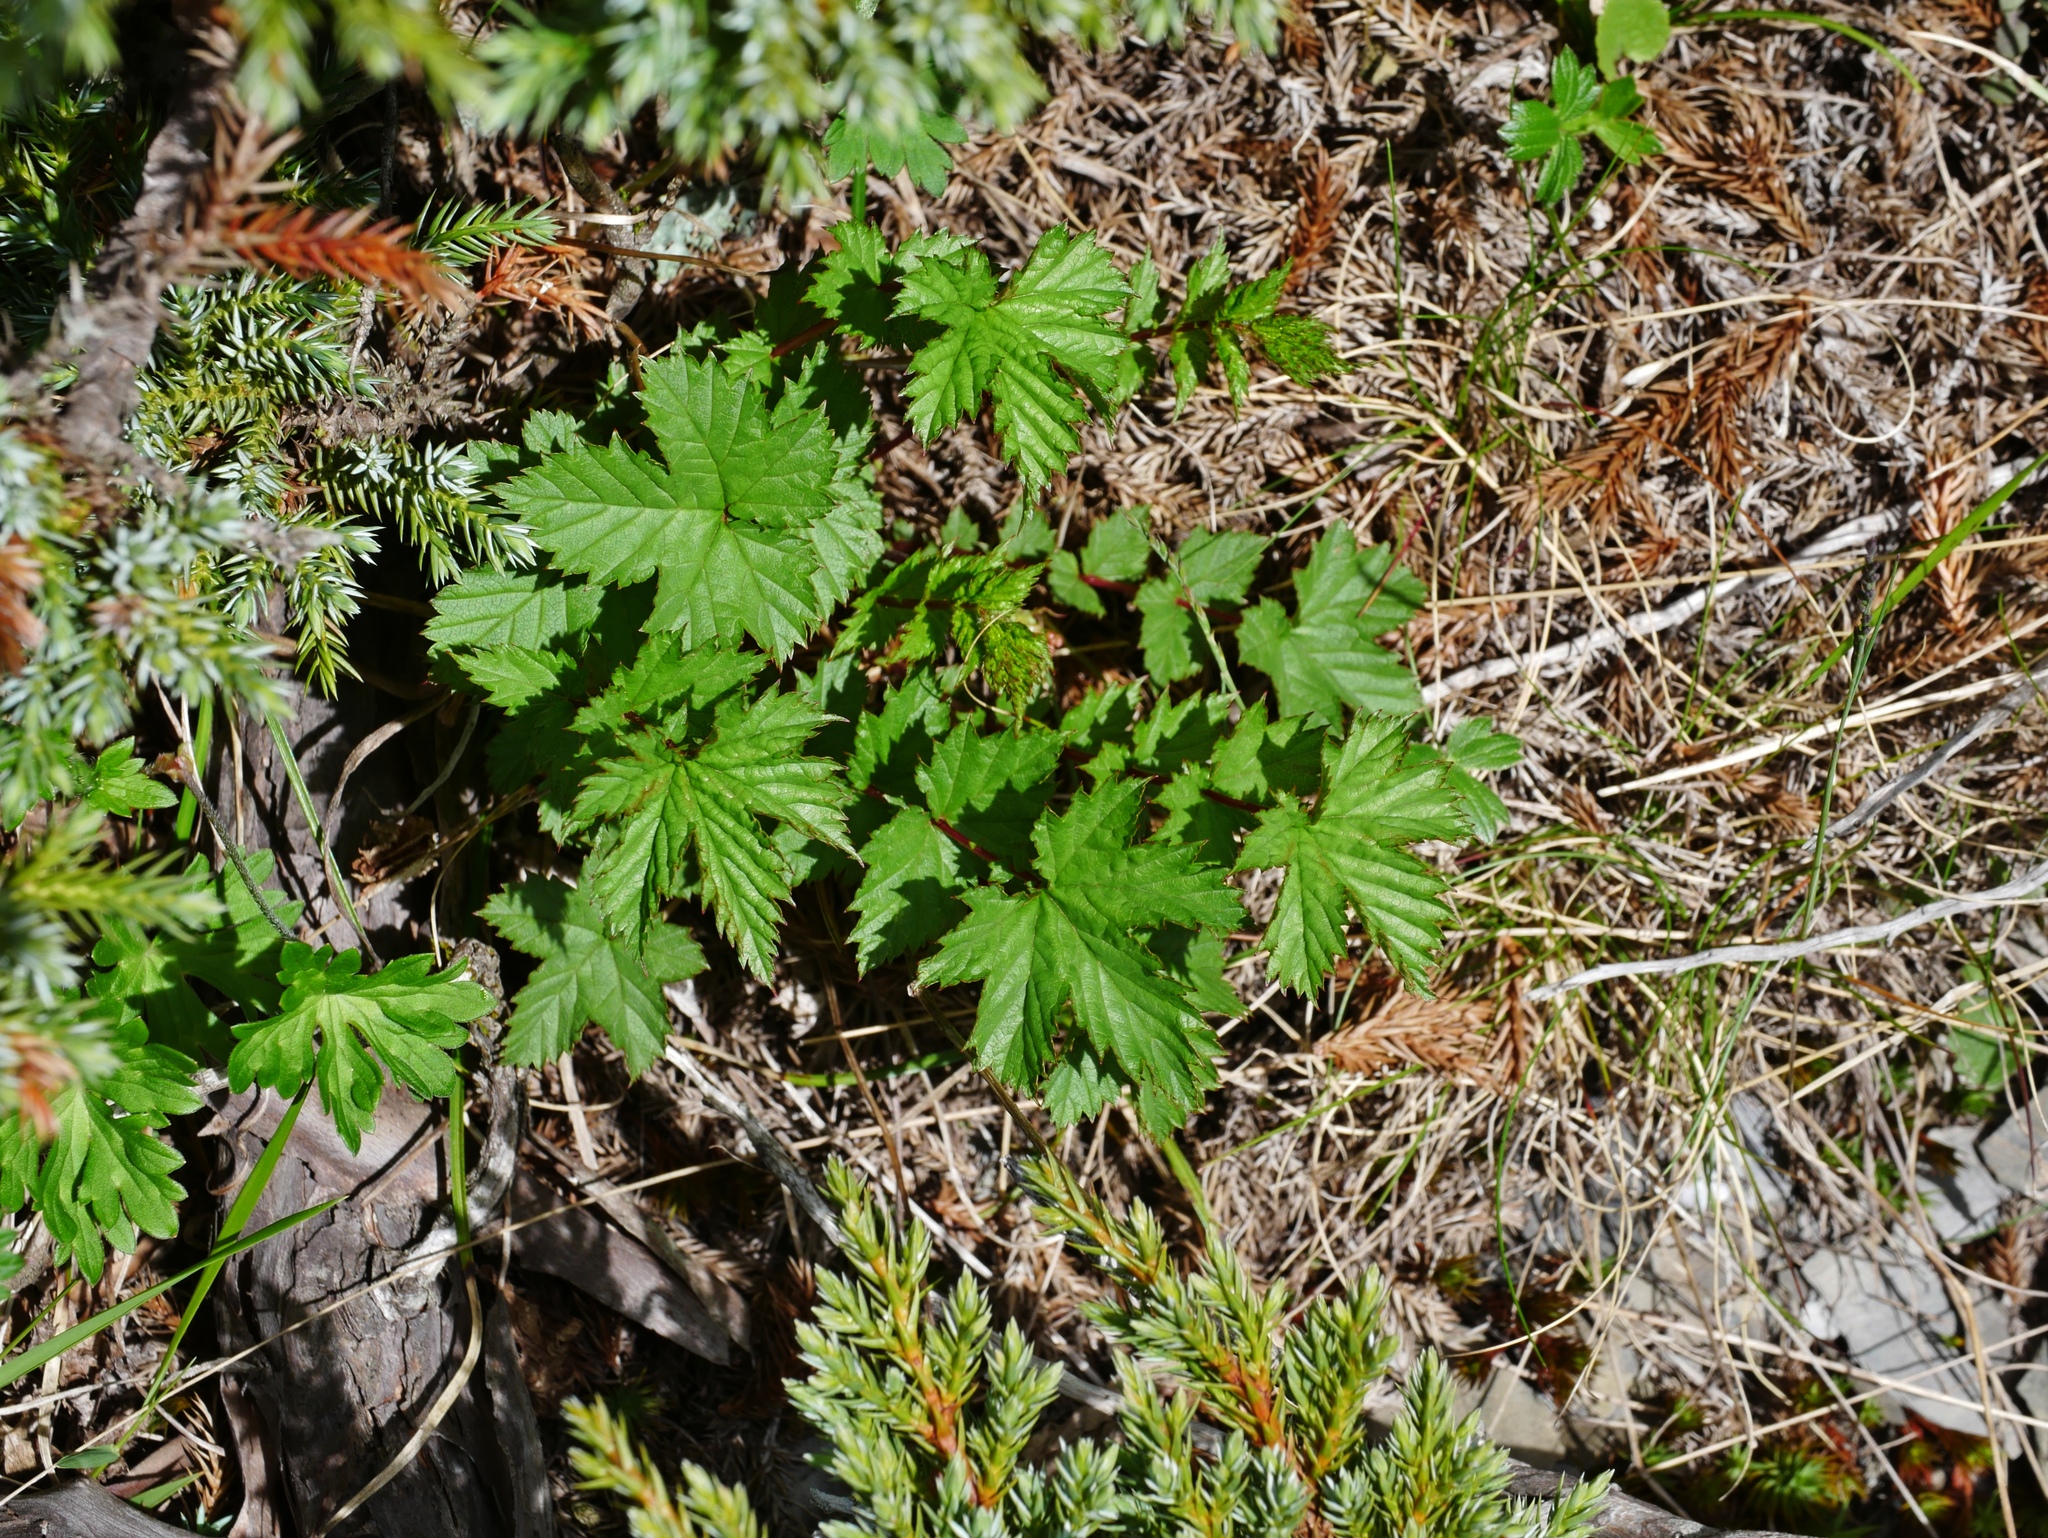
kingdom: Plantae
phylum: Tracheophyta
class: Magnoliopsida
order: Rosales
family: Rosaceae
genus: Filipendula
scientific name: Filipendula kiraishiensis
